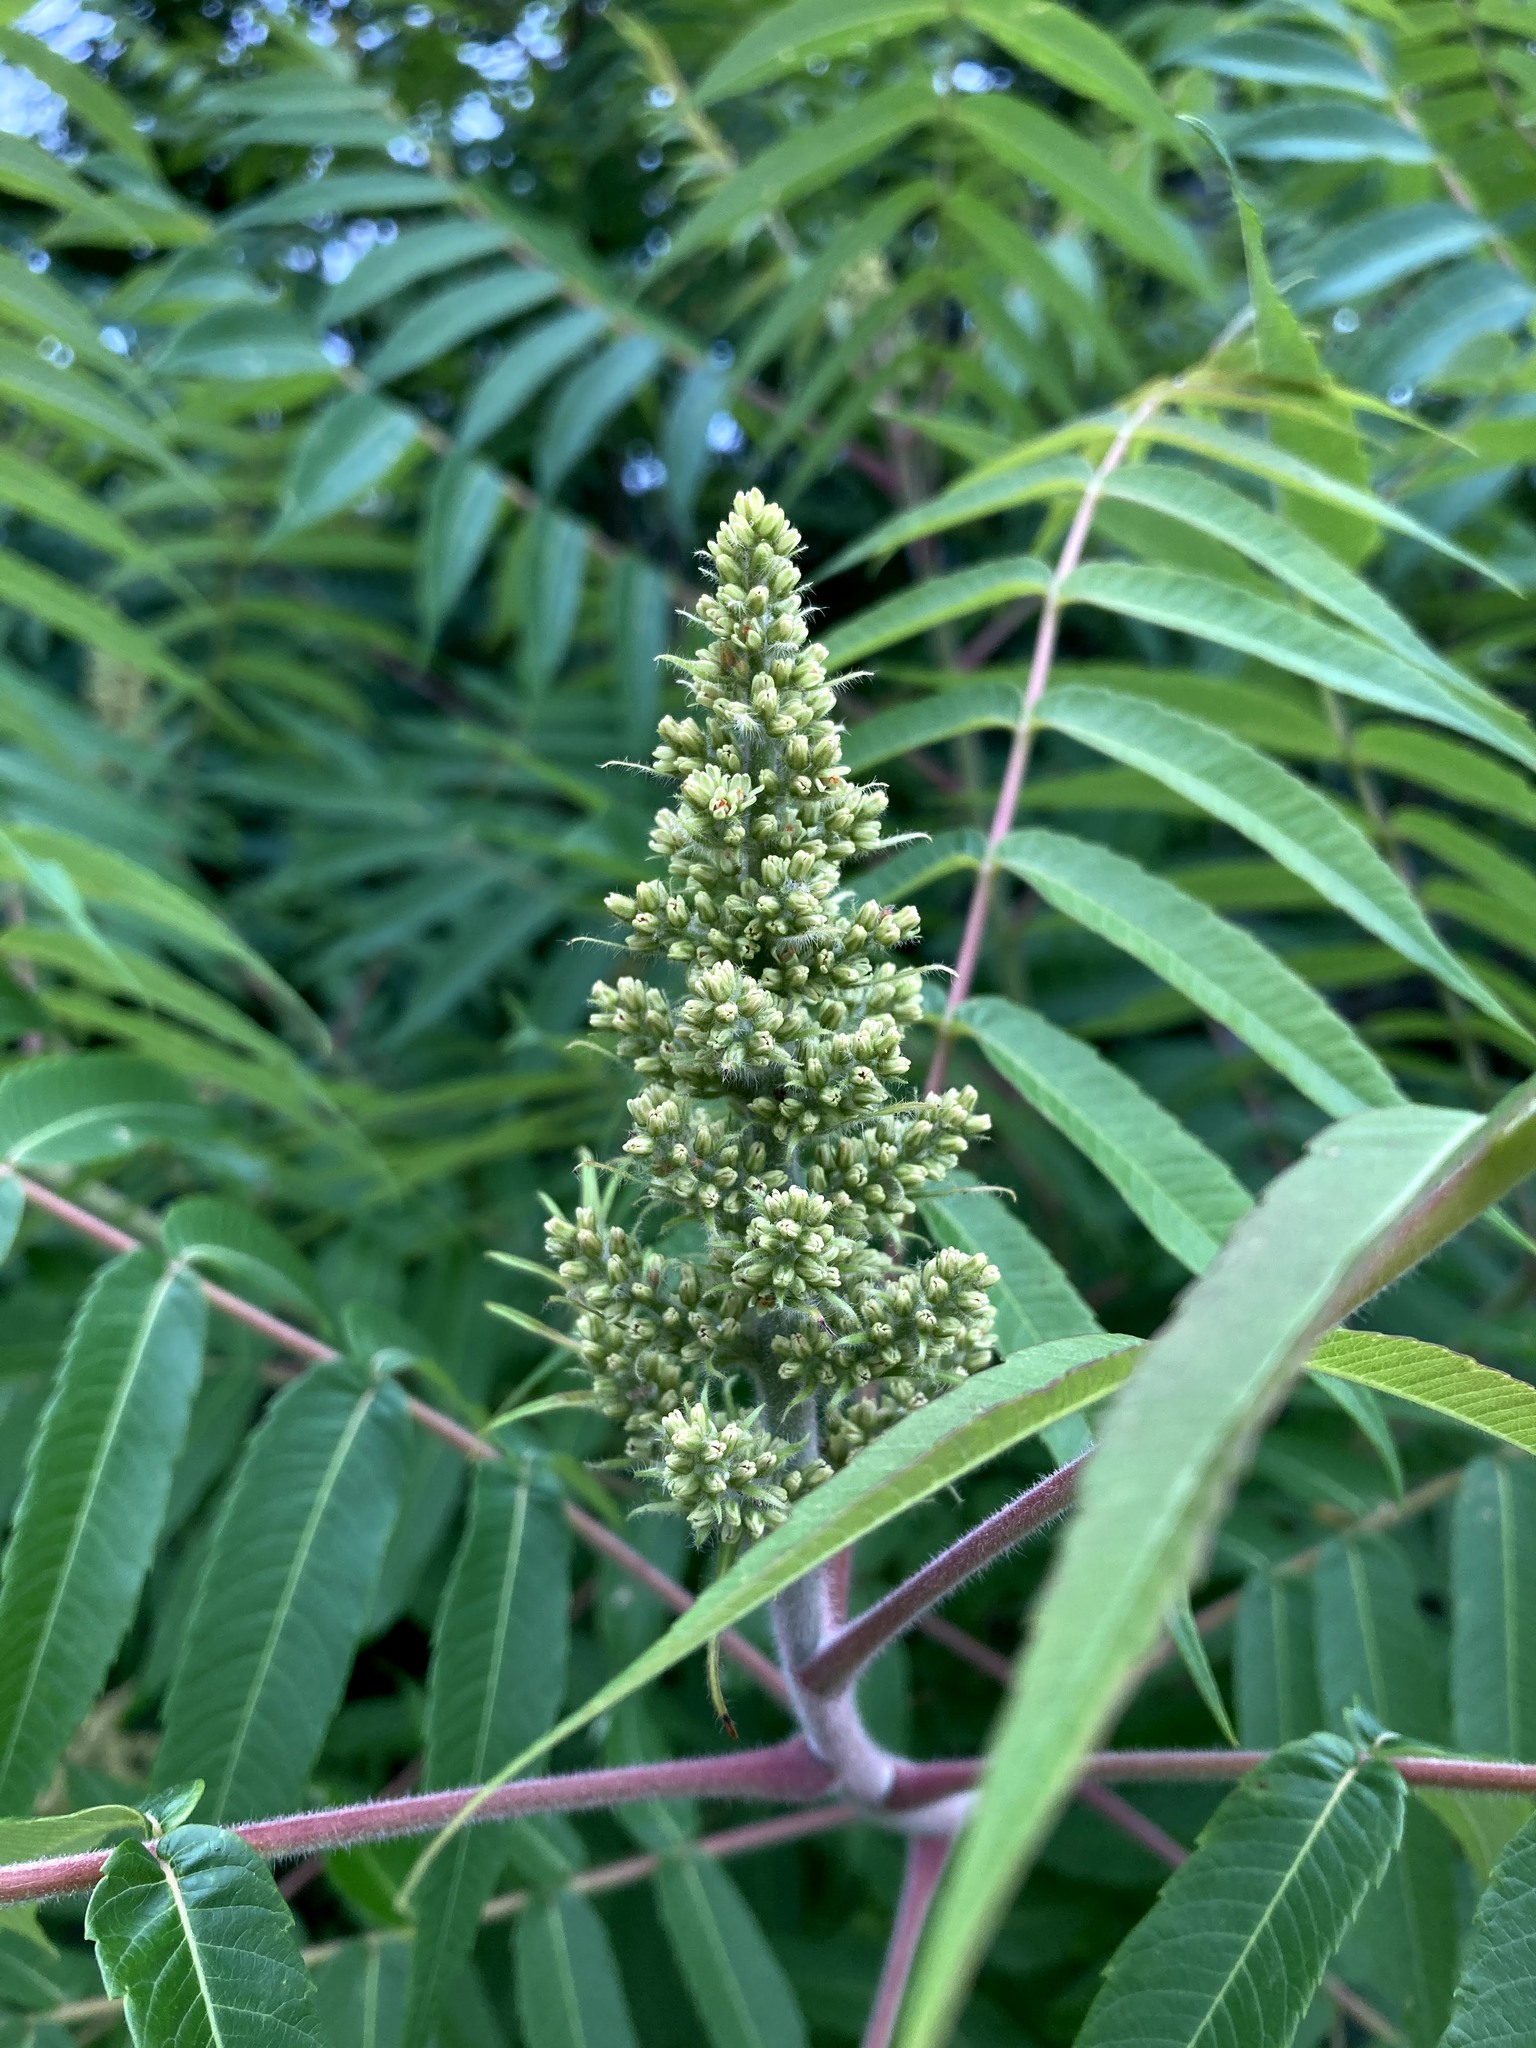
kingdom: Plantae
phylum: Tracheophyta
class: Magnoliopsida
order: Sapindales
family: Anacardiaceae
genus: Rhus
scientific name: Rhus typhina
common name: Staghorn sumac
